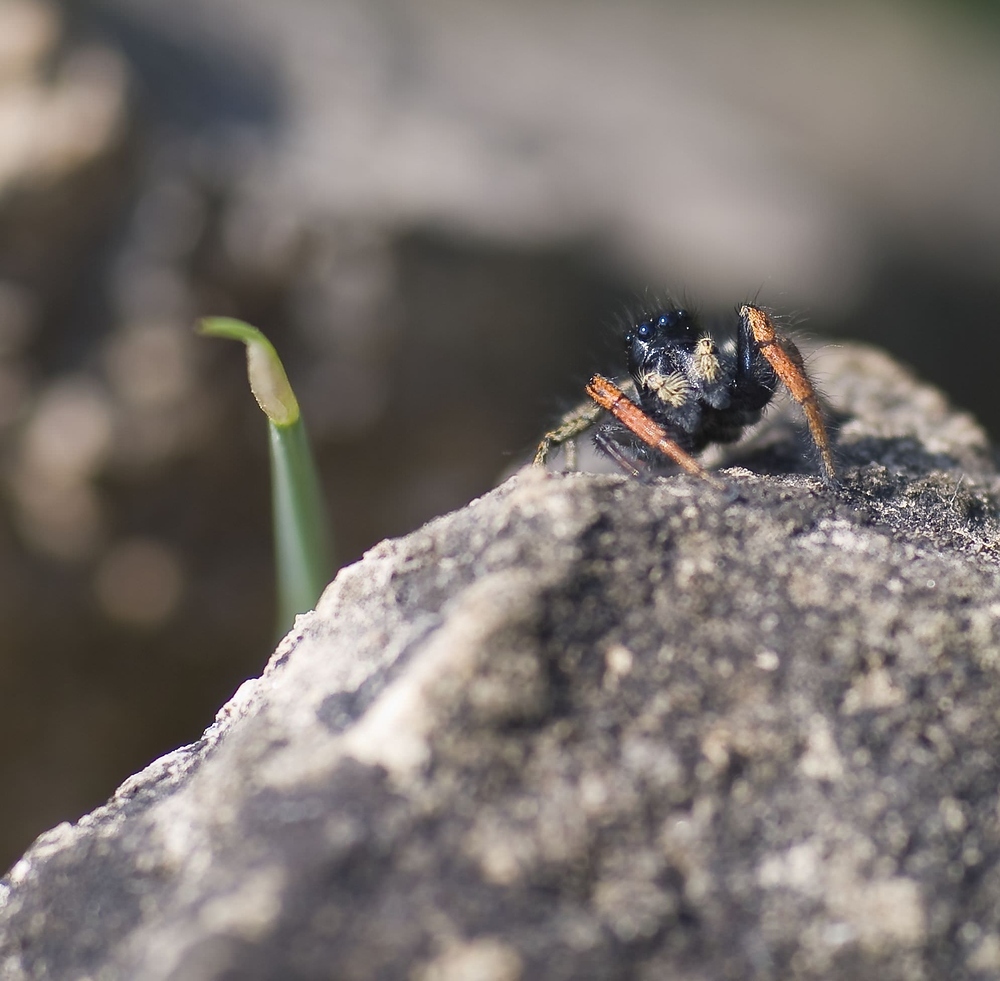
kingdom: Animalia
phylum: Arthropoda
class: Arachnida
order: Araneae
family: Salticidae
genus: Philaeus
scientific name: Philaeus chrysops
